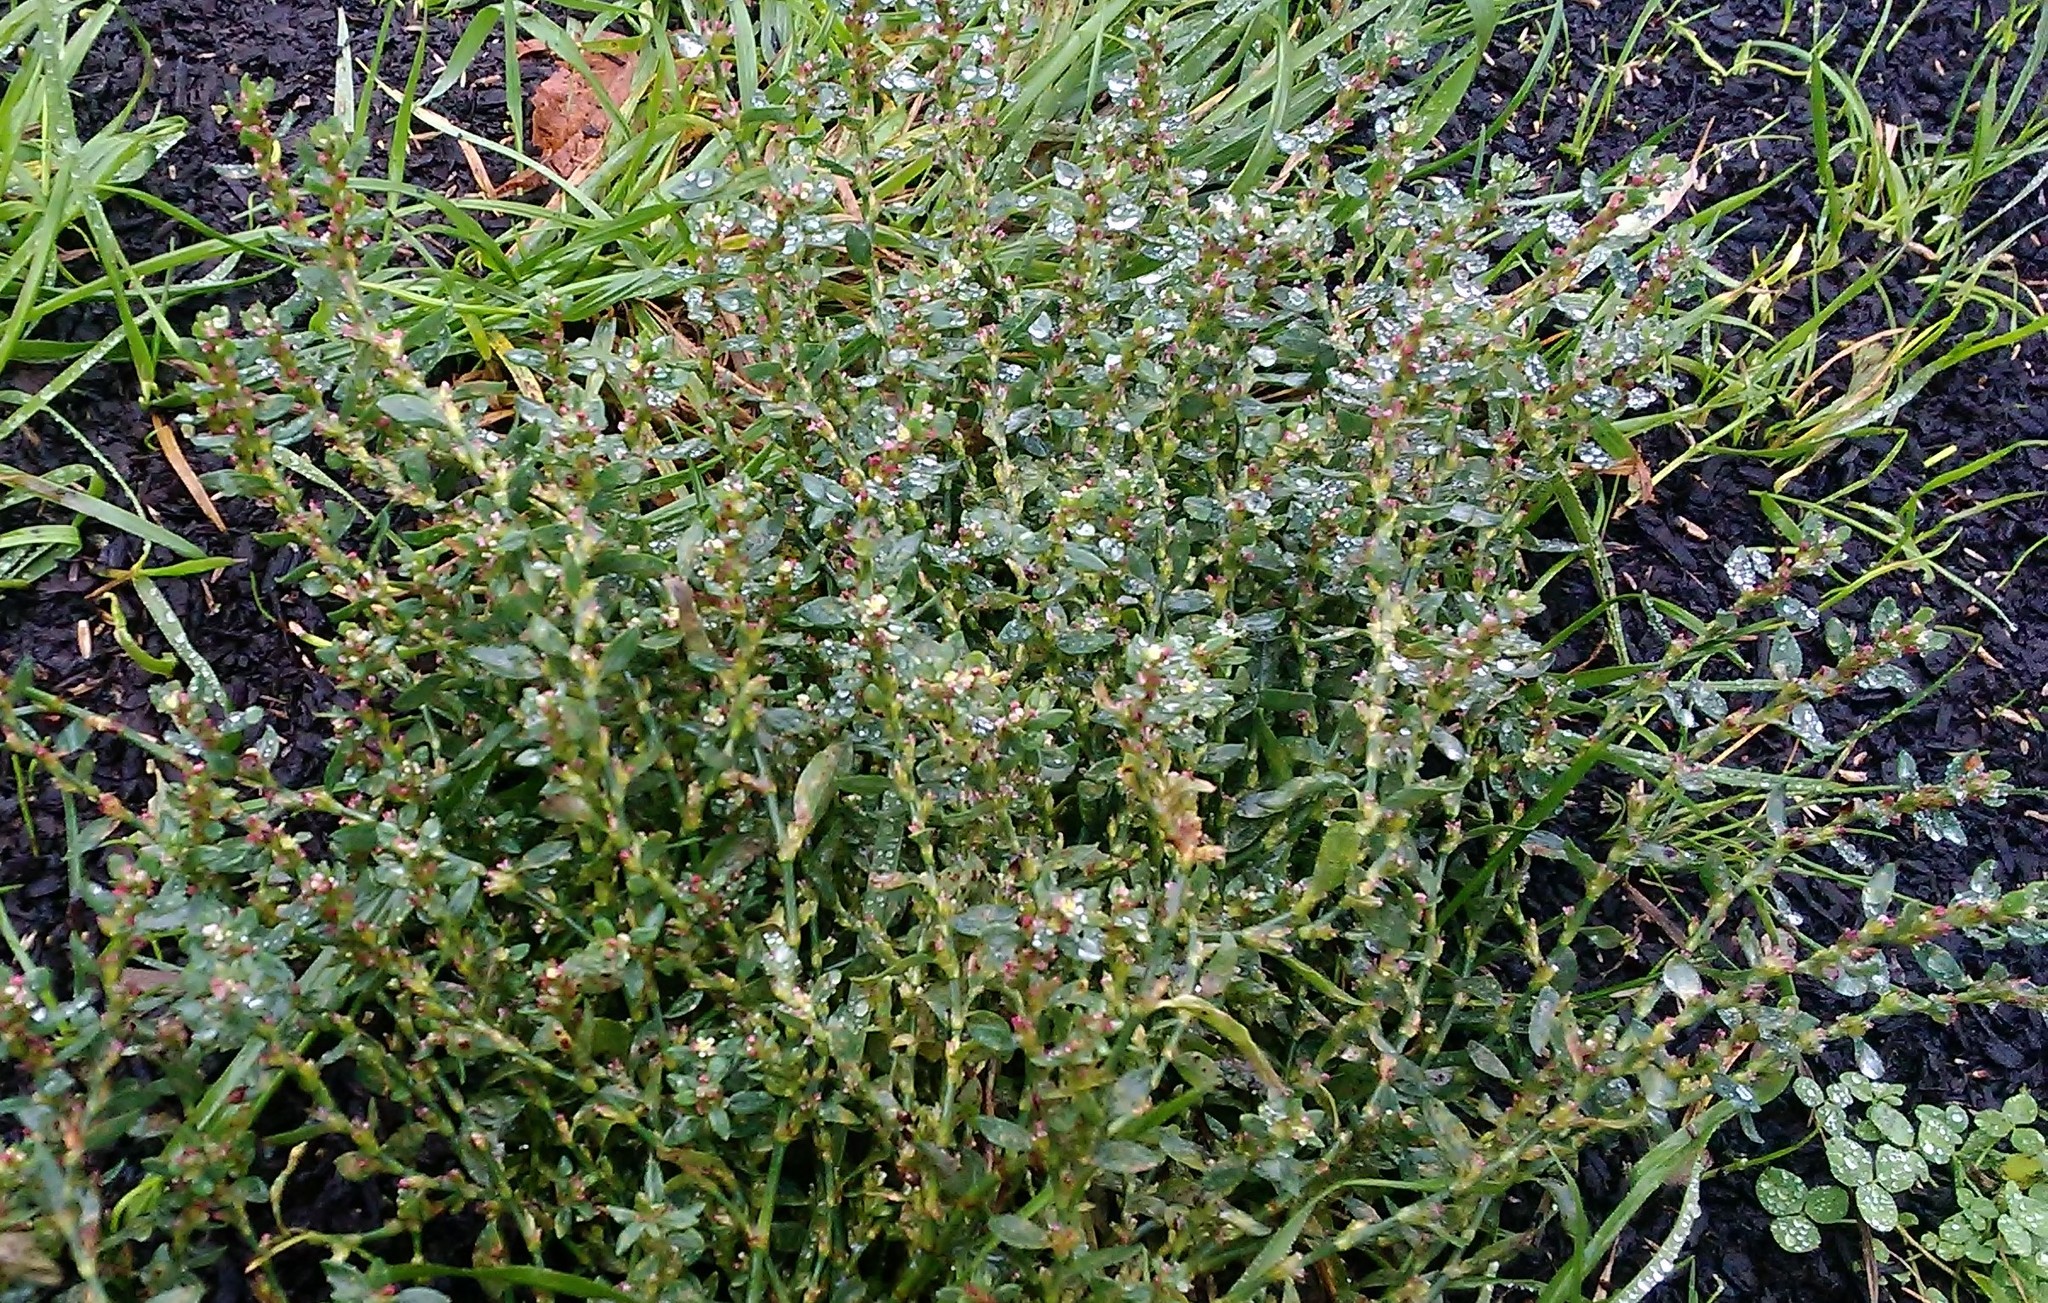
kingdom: Plantae
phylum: Tracheophyta
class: Magnoliopsida
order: Caryophyllales
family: Polygonaceae
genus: Polygonum
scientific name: Polygonum
